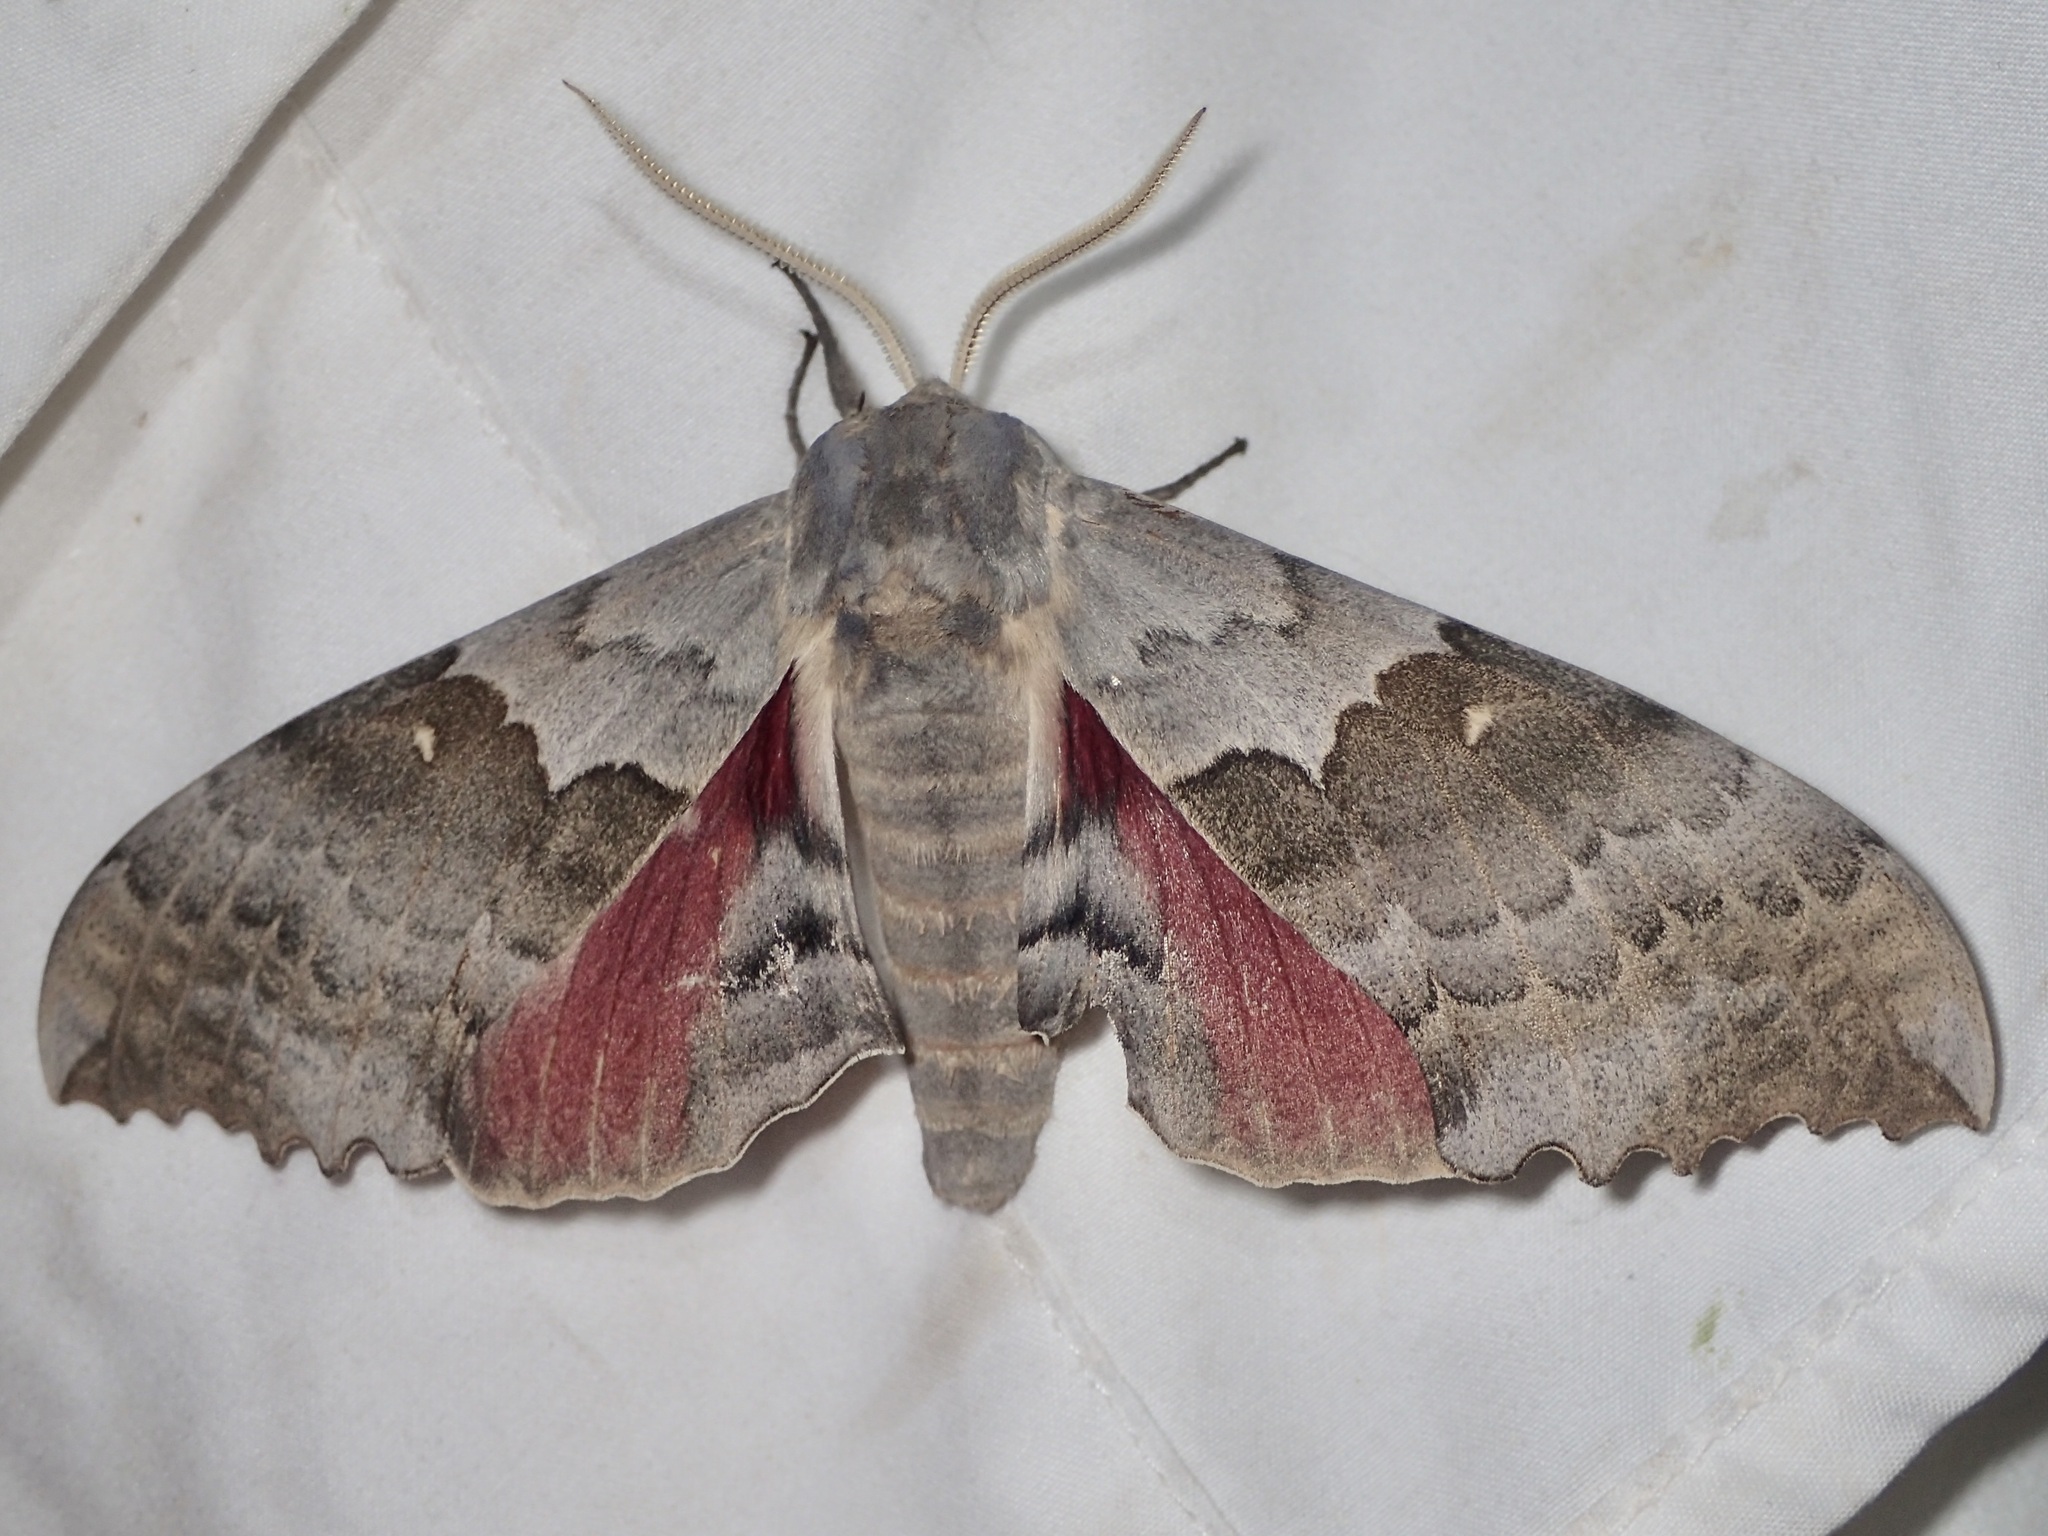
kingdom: Animalia
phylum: Arthropoda
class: Insecta
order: Lepidoptera
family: Sphingidae
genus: Pachysphinx
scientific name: Pachysphinx occidentalis
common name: Western poplar sphinx
